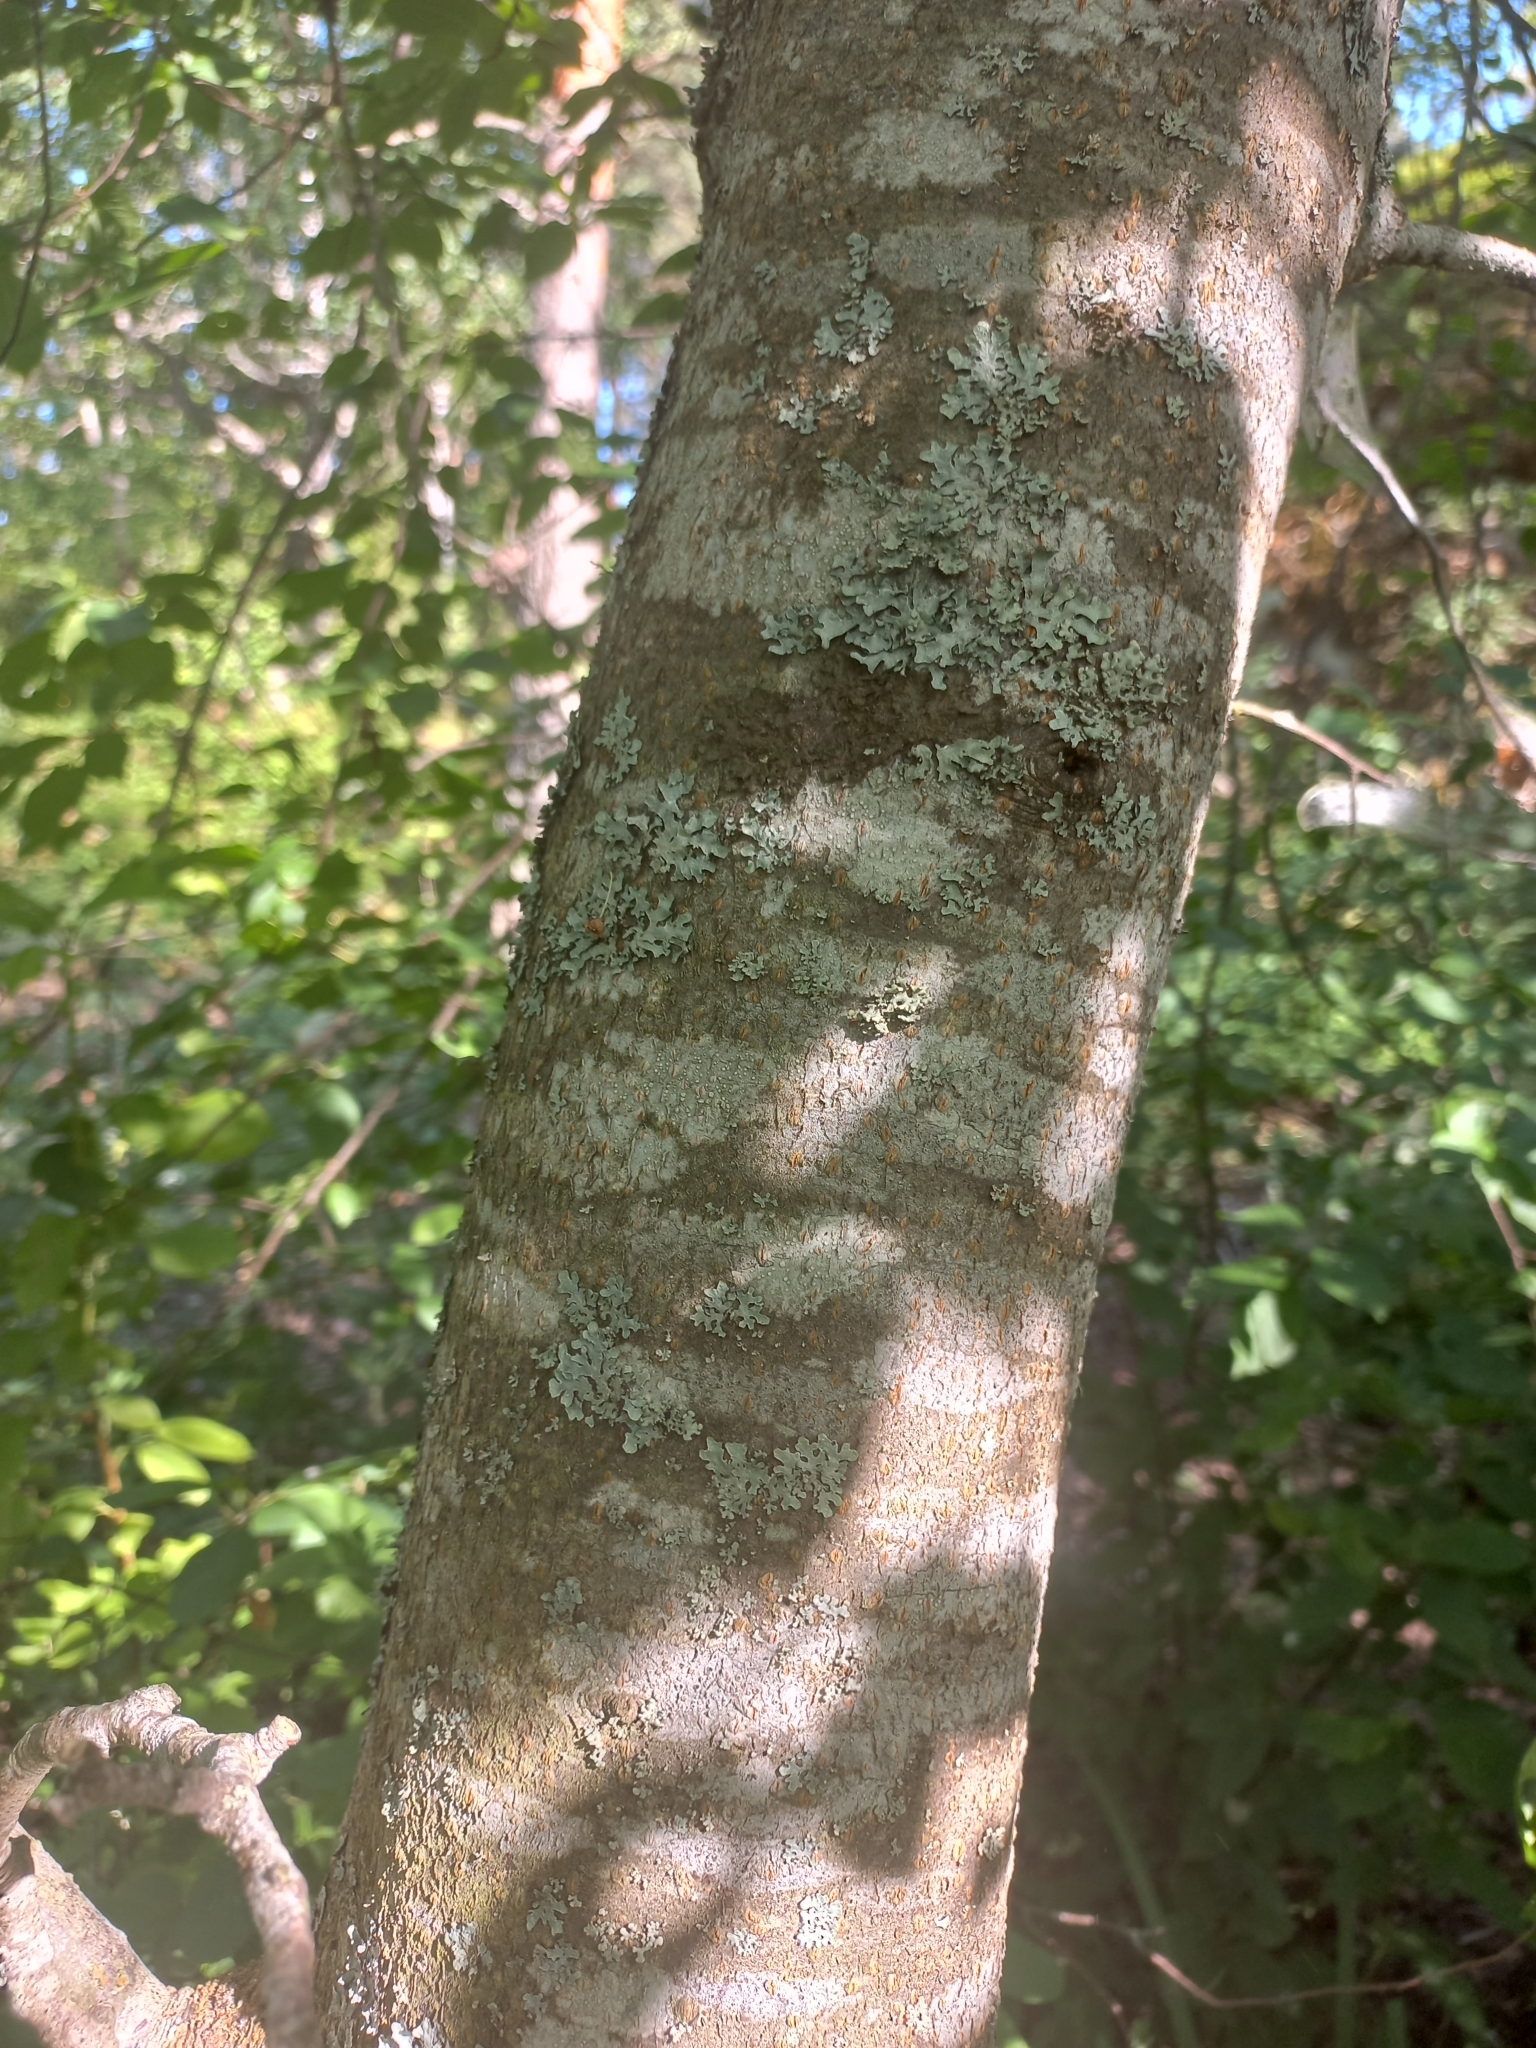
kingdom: Plantae
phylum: Tracheophyta
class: Magnoliopsida
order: Rosales
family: Rosaceae
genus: Prunus
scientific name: Prunus padus
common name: Bird cherry
